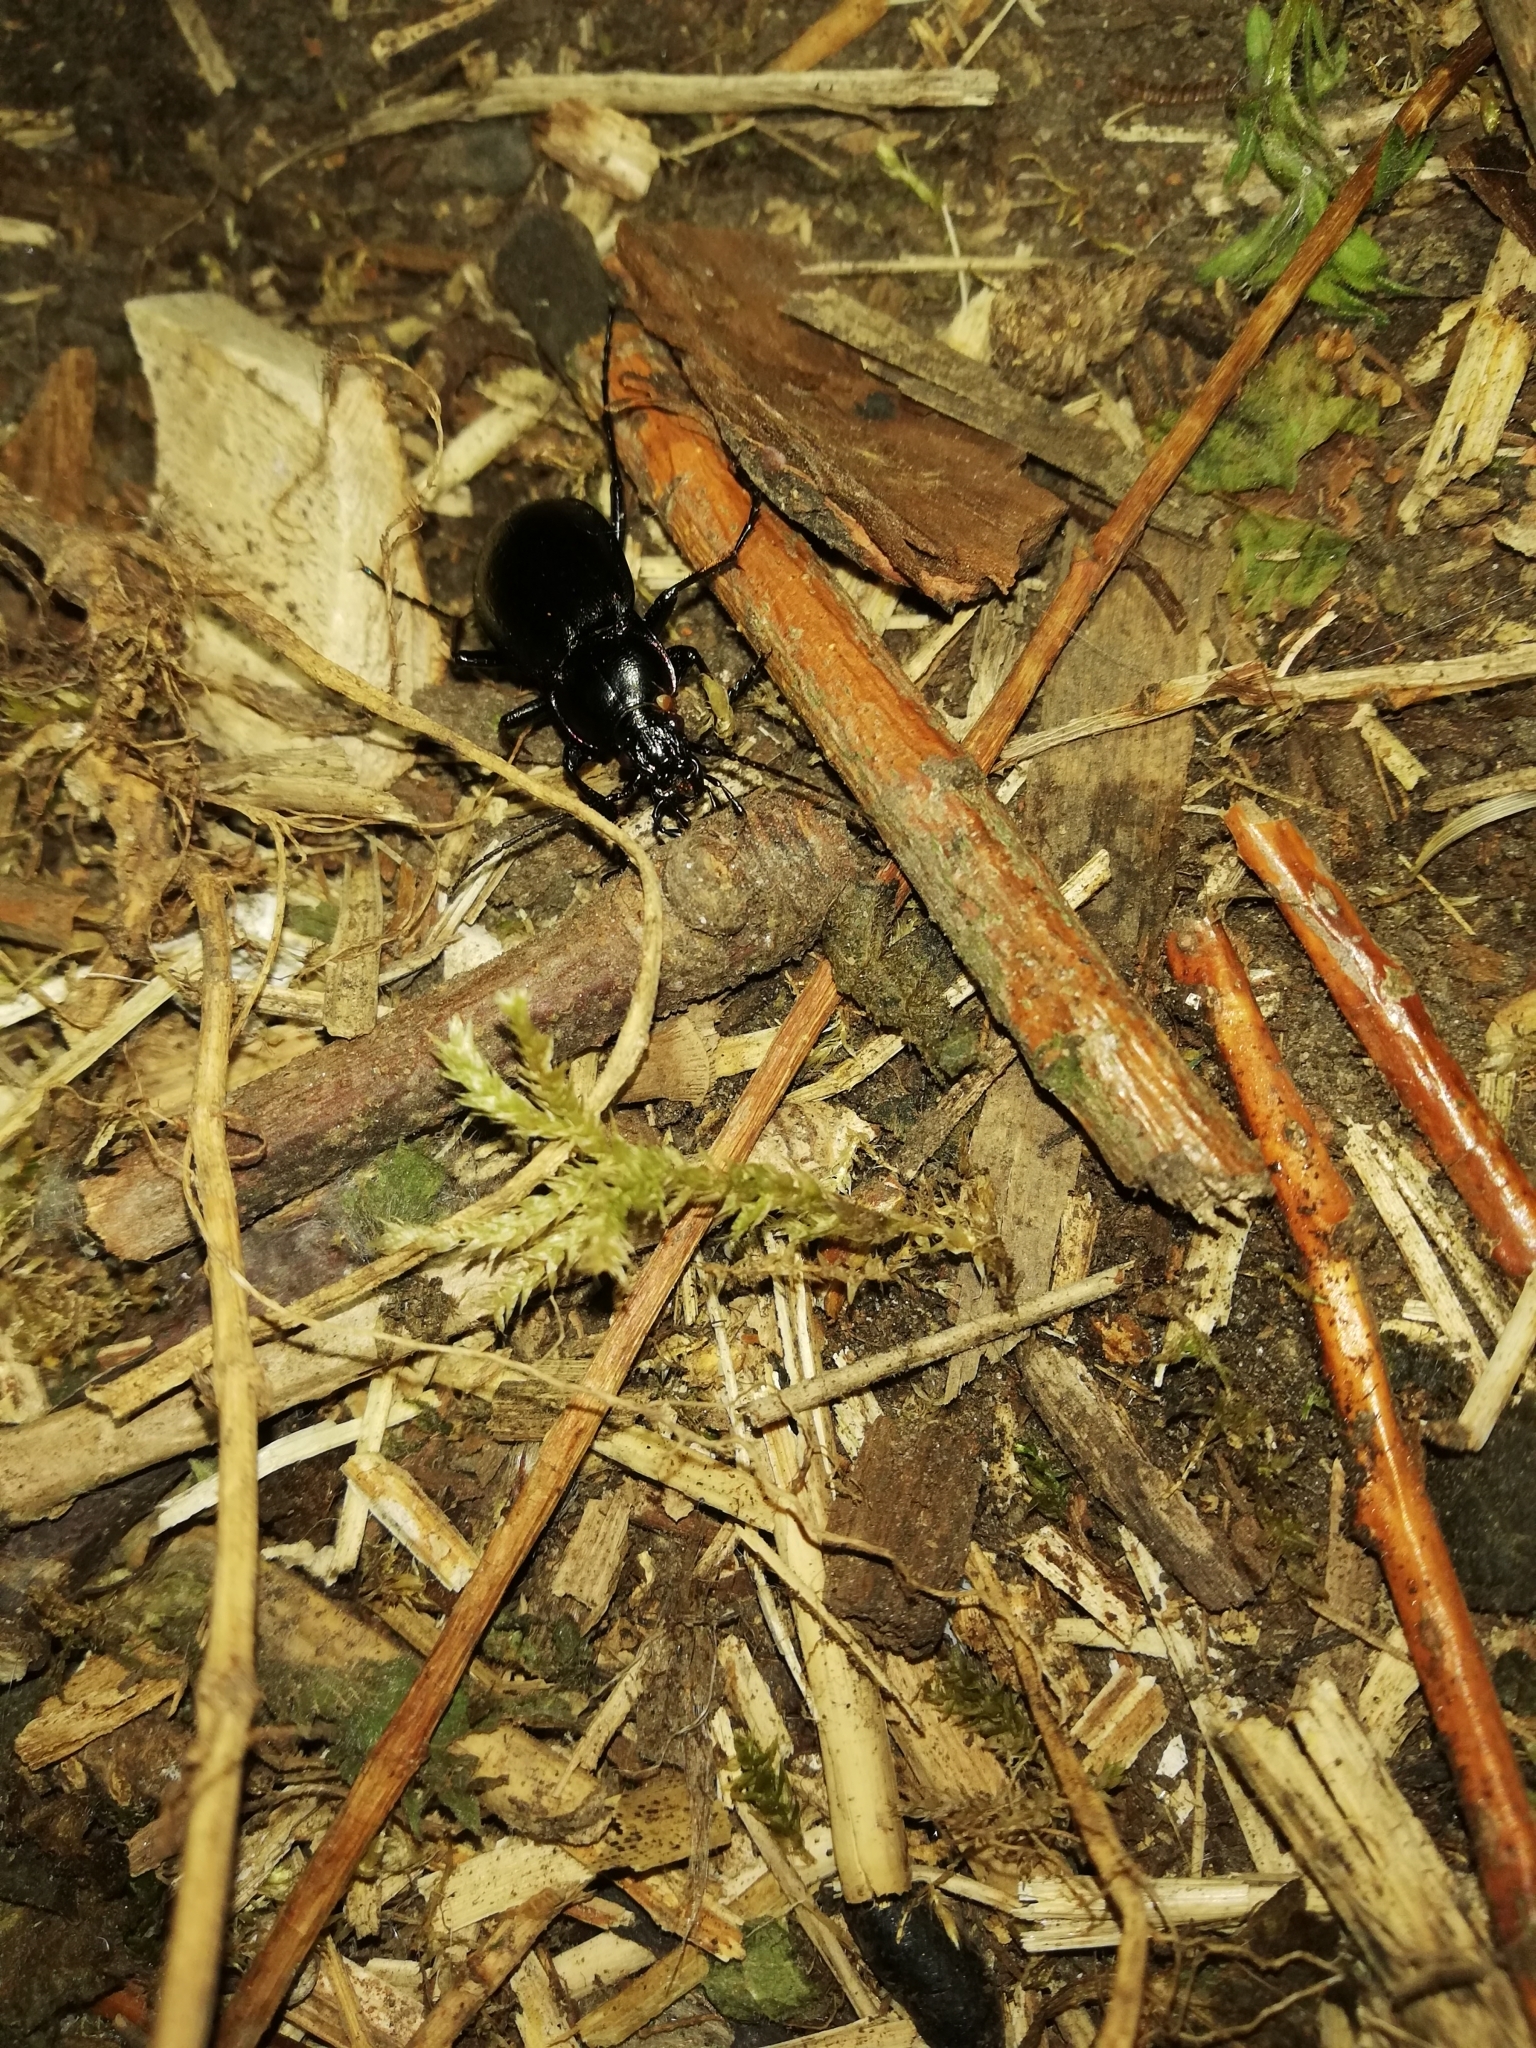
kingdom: Animalia
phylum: Arthropoda
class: Insecta
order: Coleoptera
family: Carabidae
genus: Carabus
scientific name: Carabus nemoralis
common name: European ground beetle
